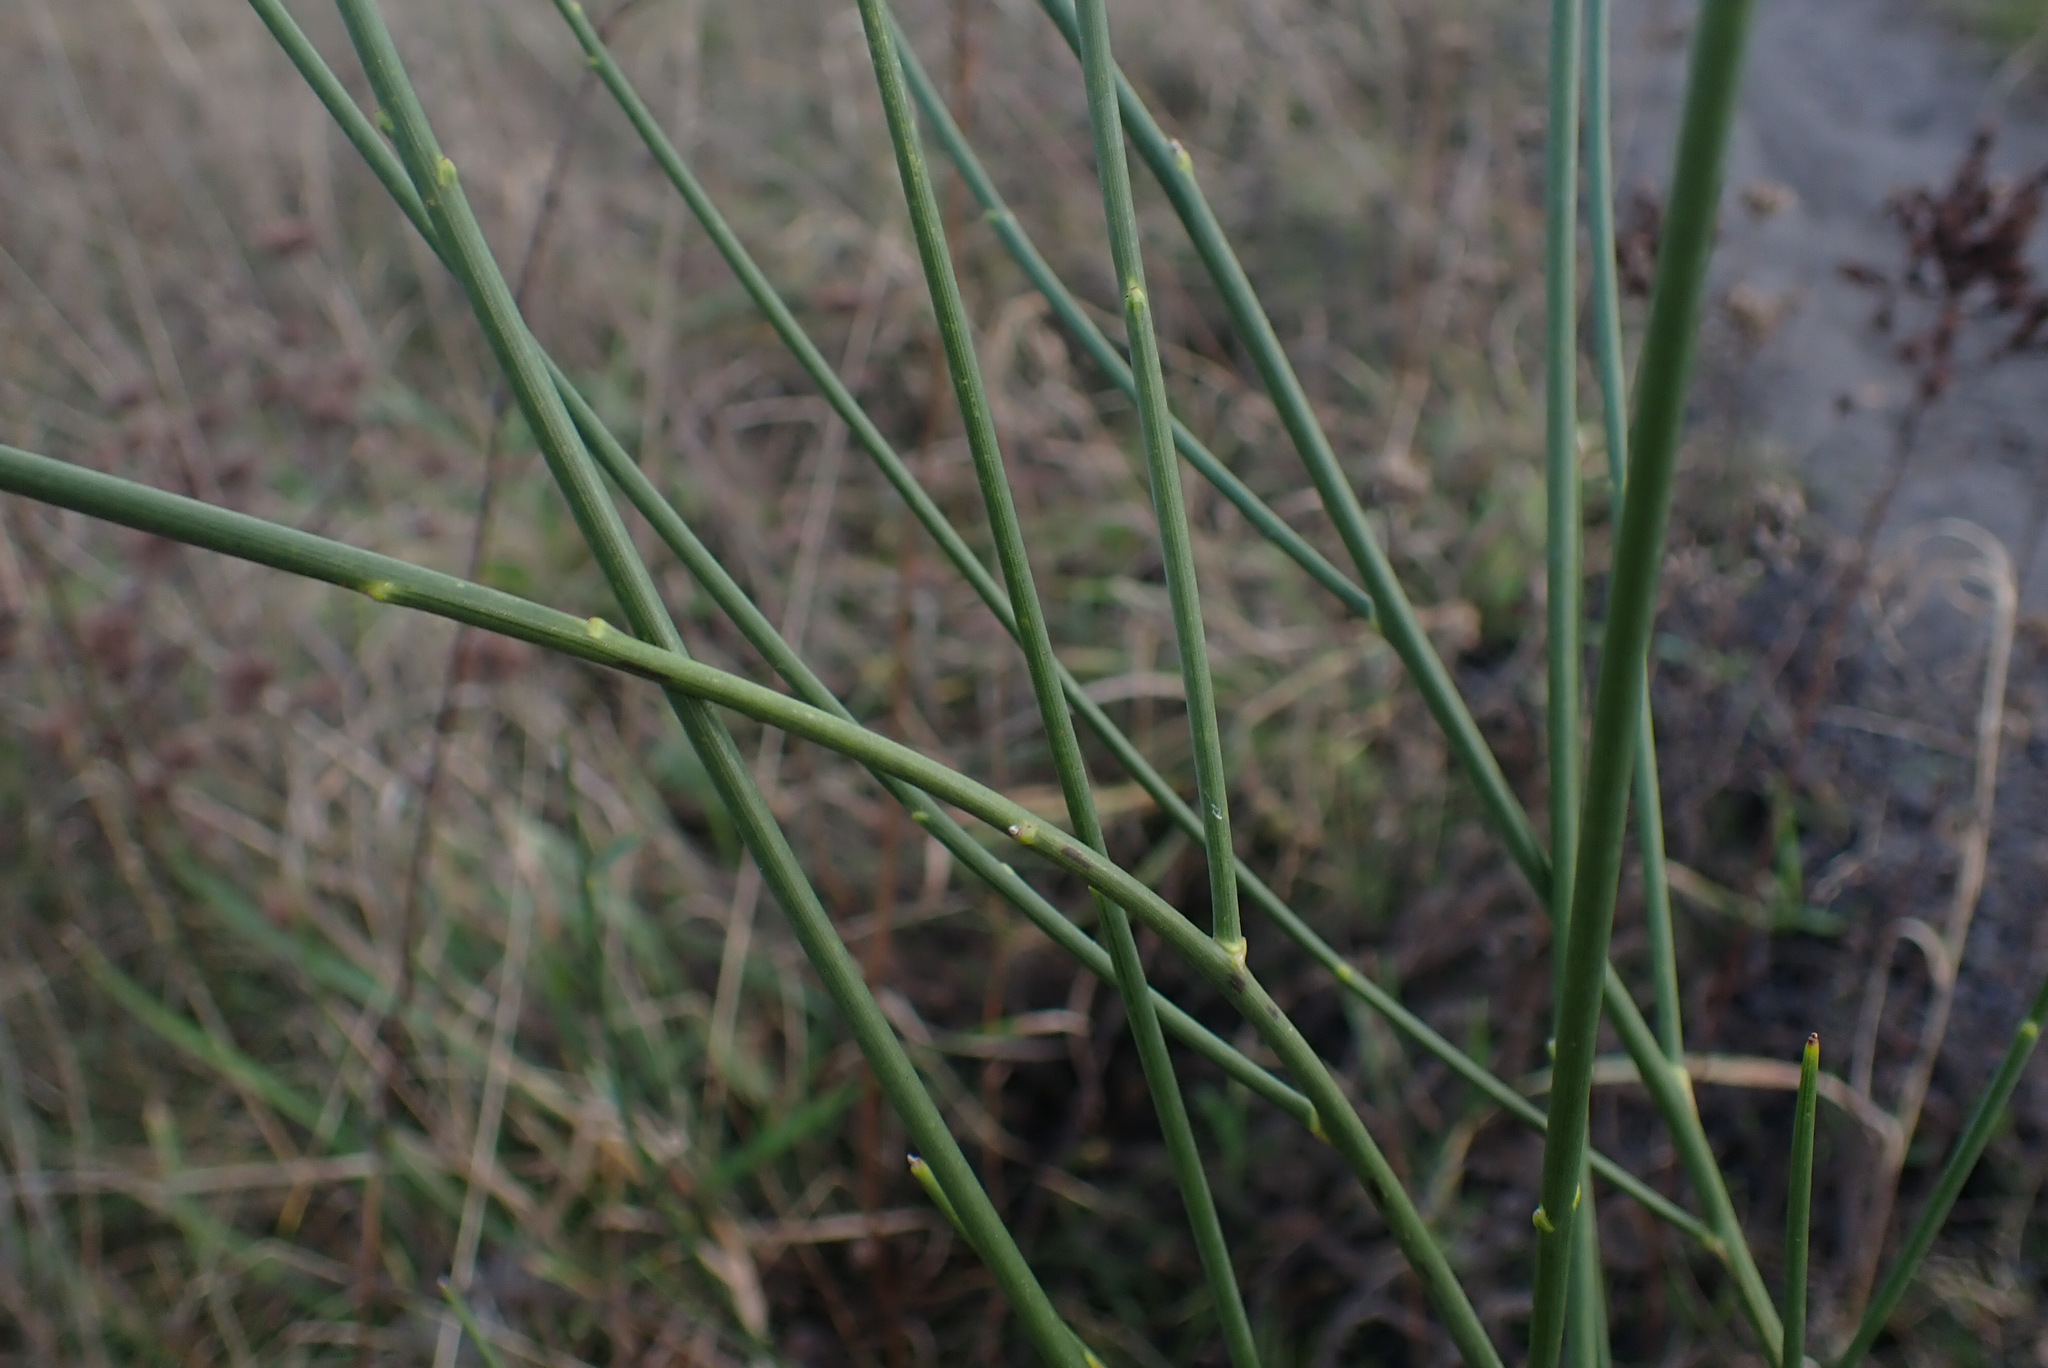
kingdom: Plantae
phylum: Tracheophyta
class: Magnoliopsida
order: Fabales
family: Fabaceae
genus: Spartium
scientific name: Spartium junceum
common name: Spanish broom
